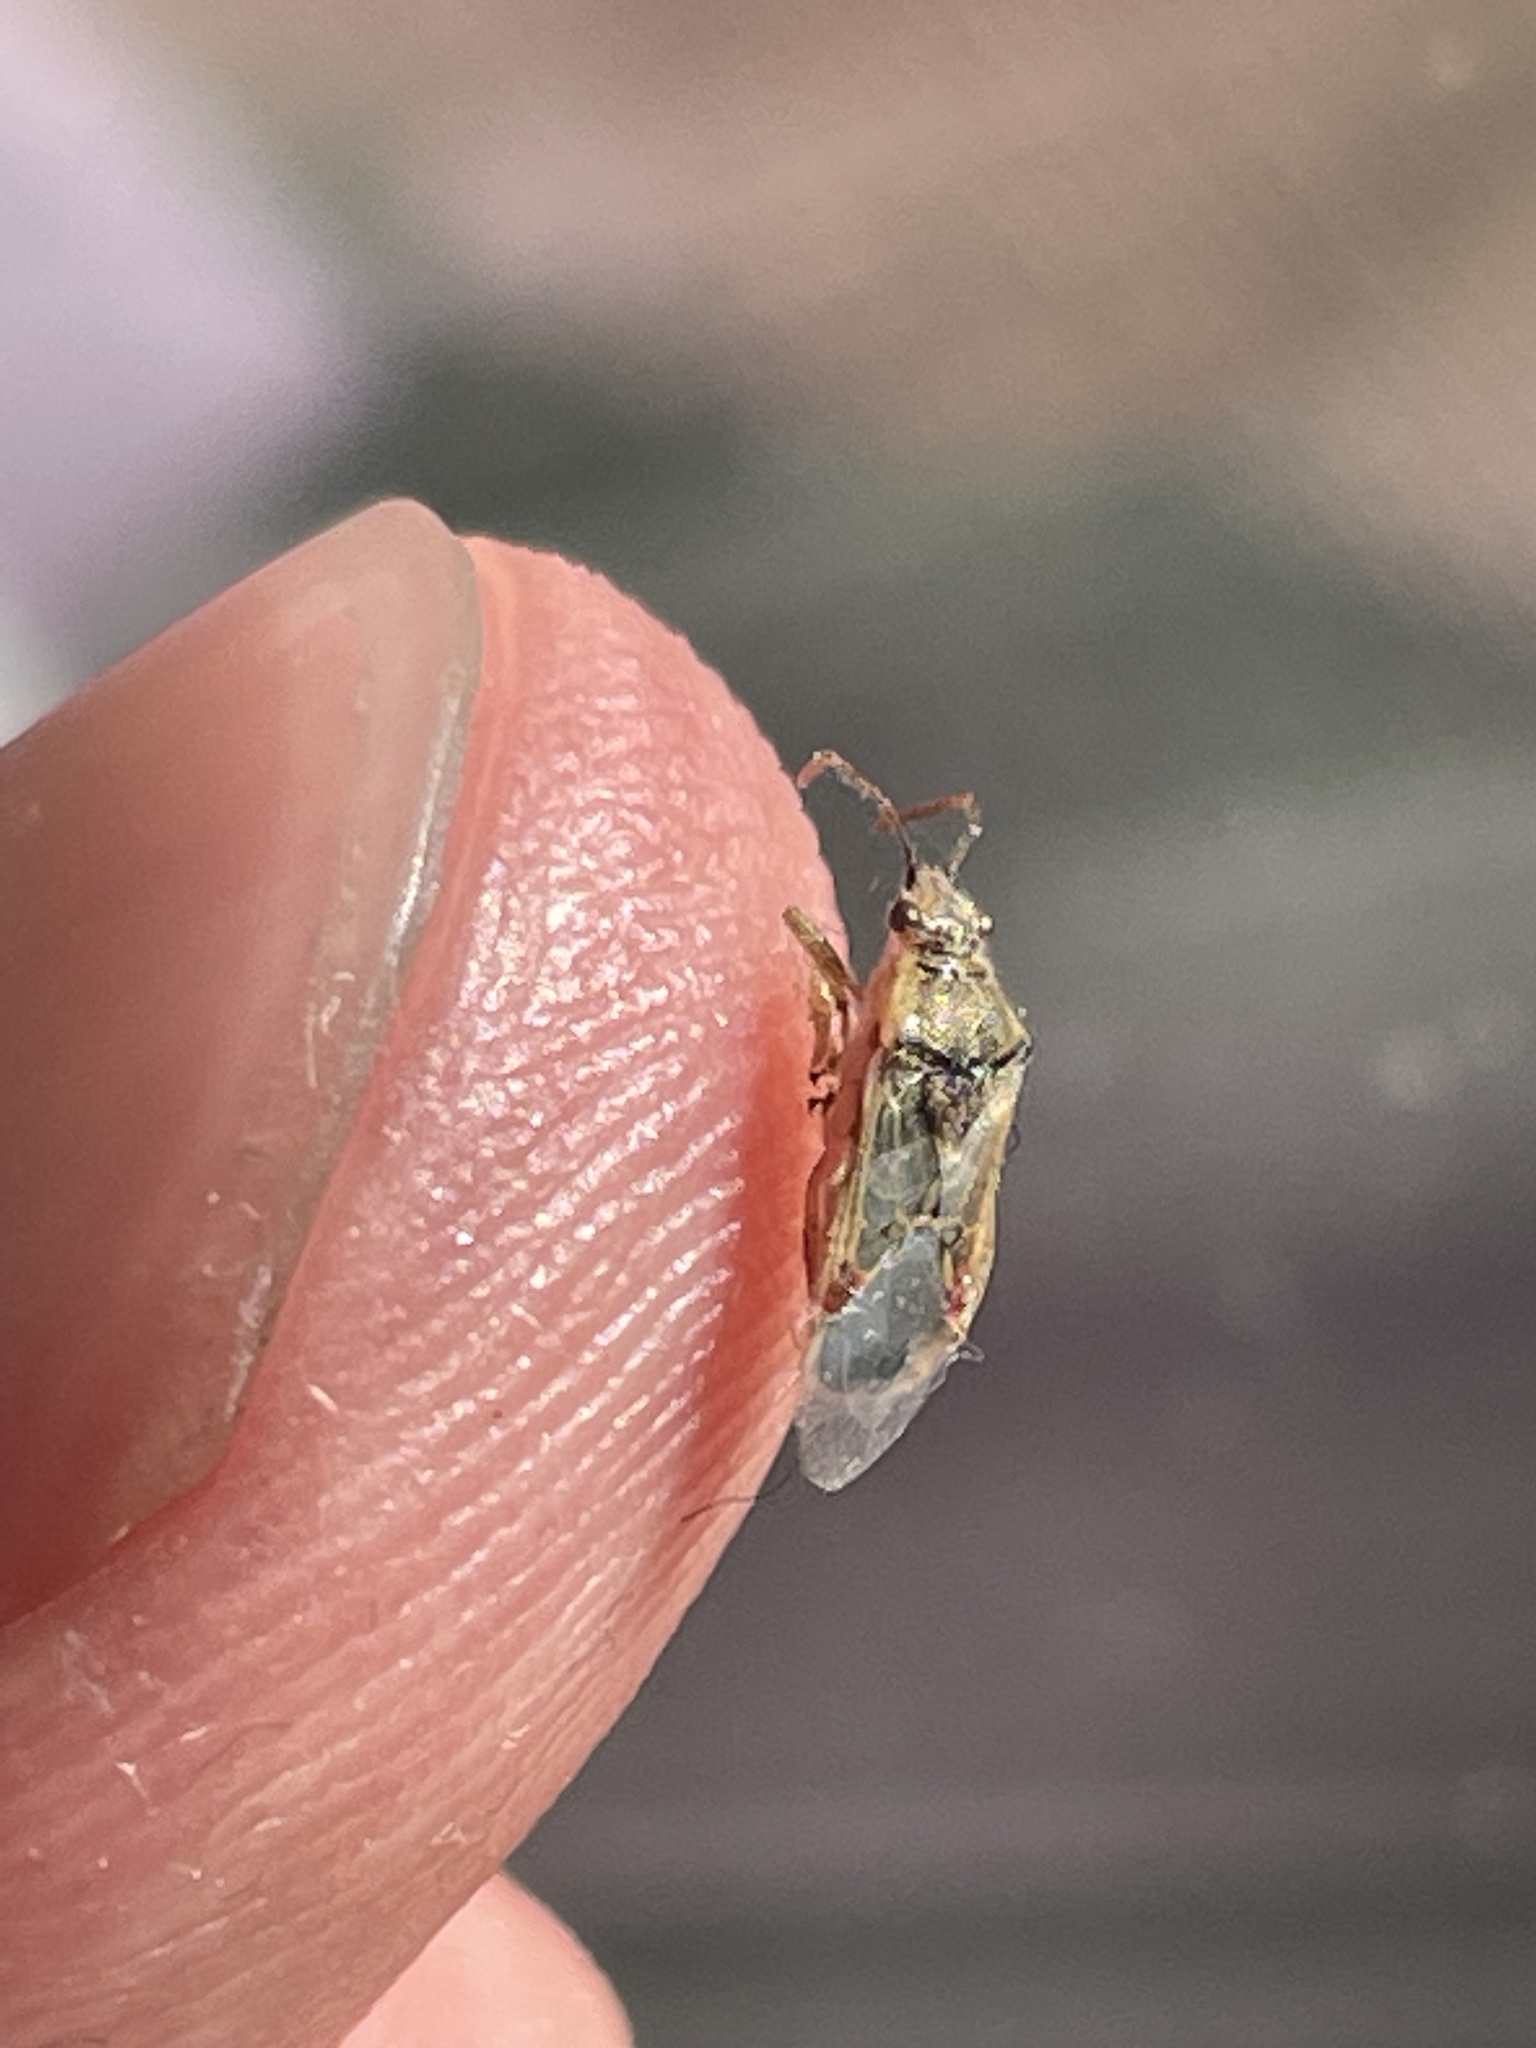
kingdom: Animalia
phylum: Arthropoda
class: Insecta
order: Hemiptera
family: Rhopalidae
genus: Liorhyssus
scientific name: Liorhyssus hyalinus
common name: Scentless plant bug
